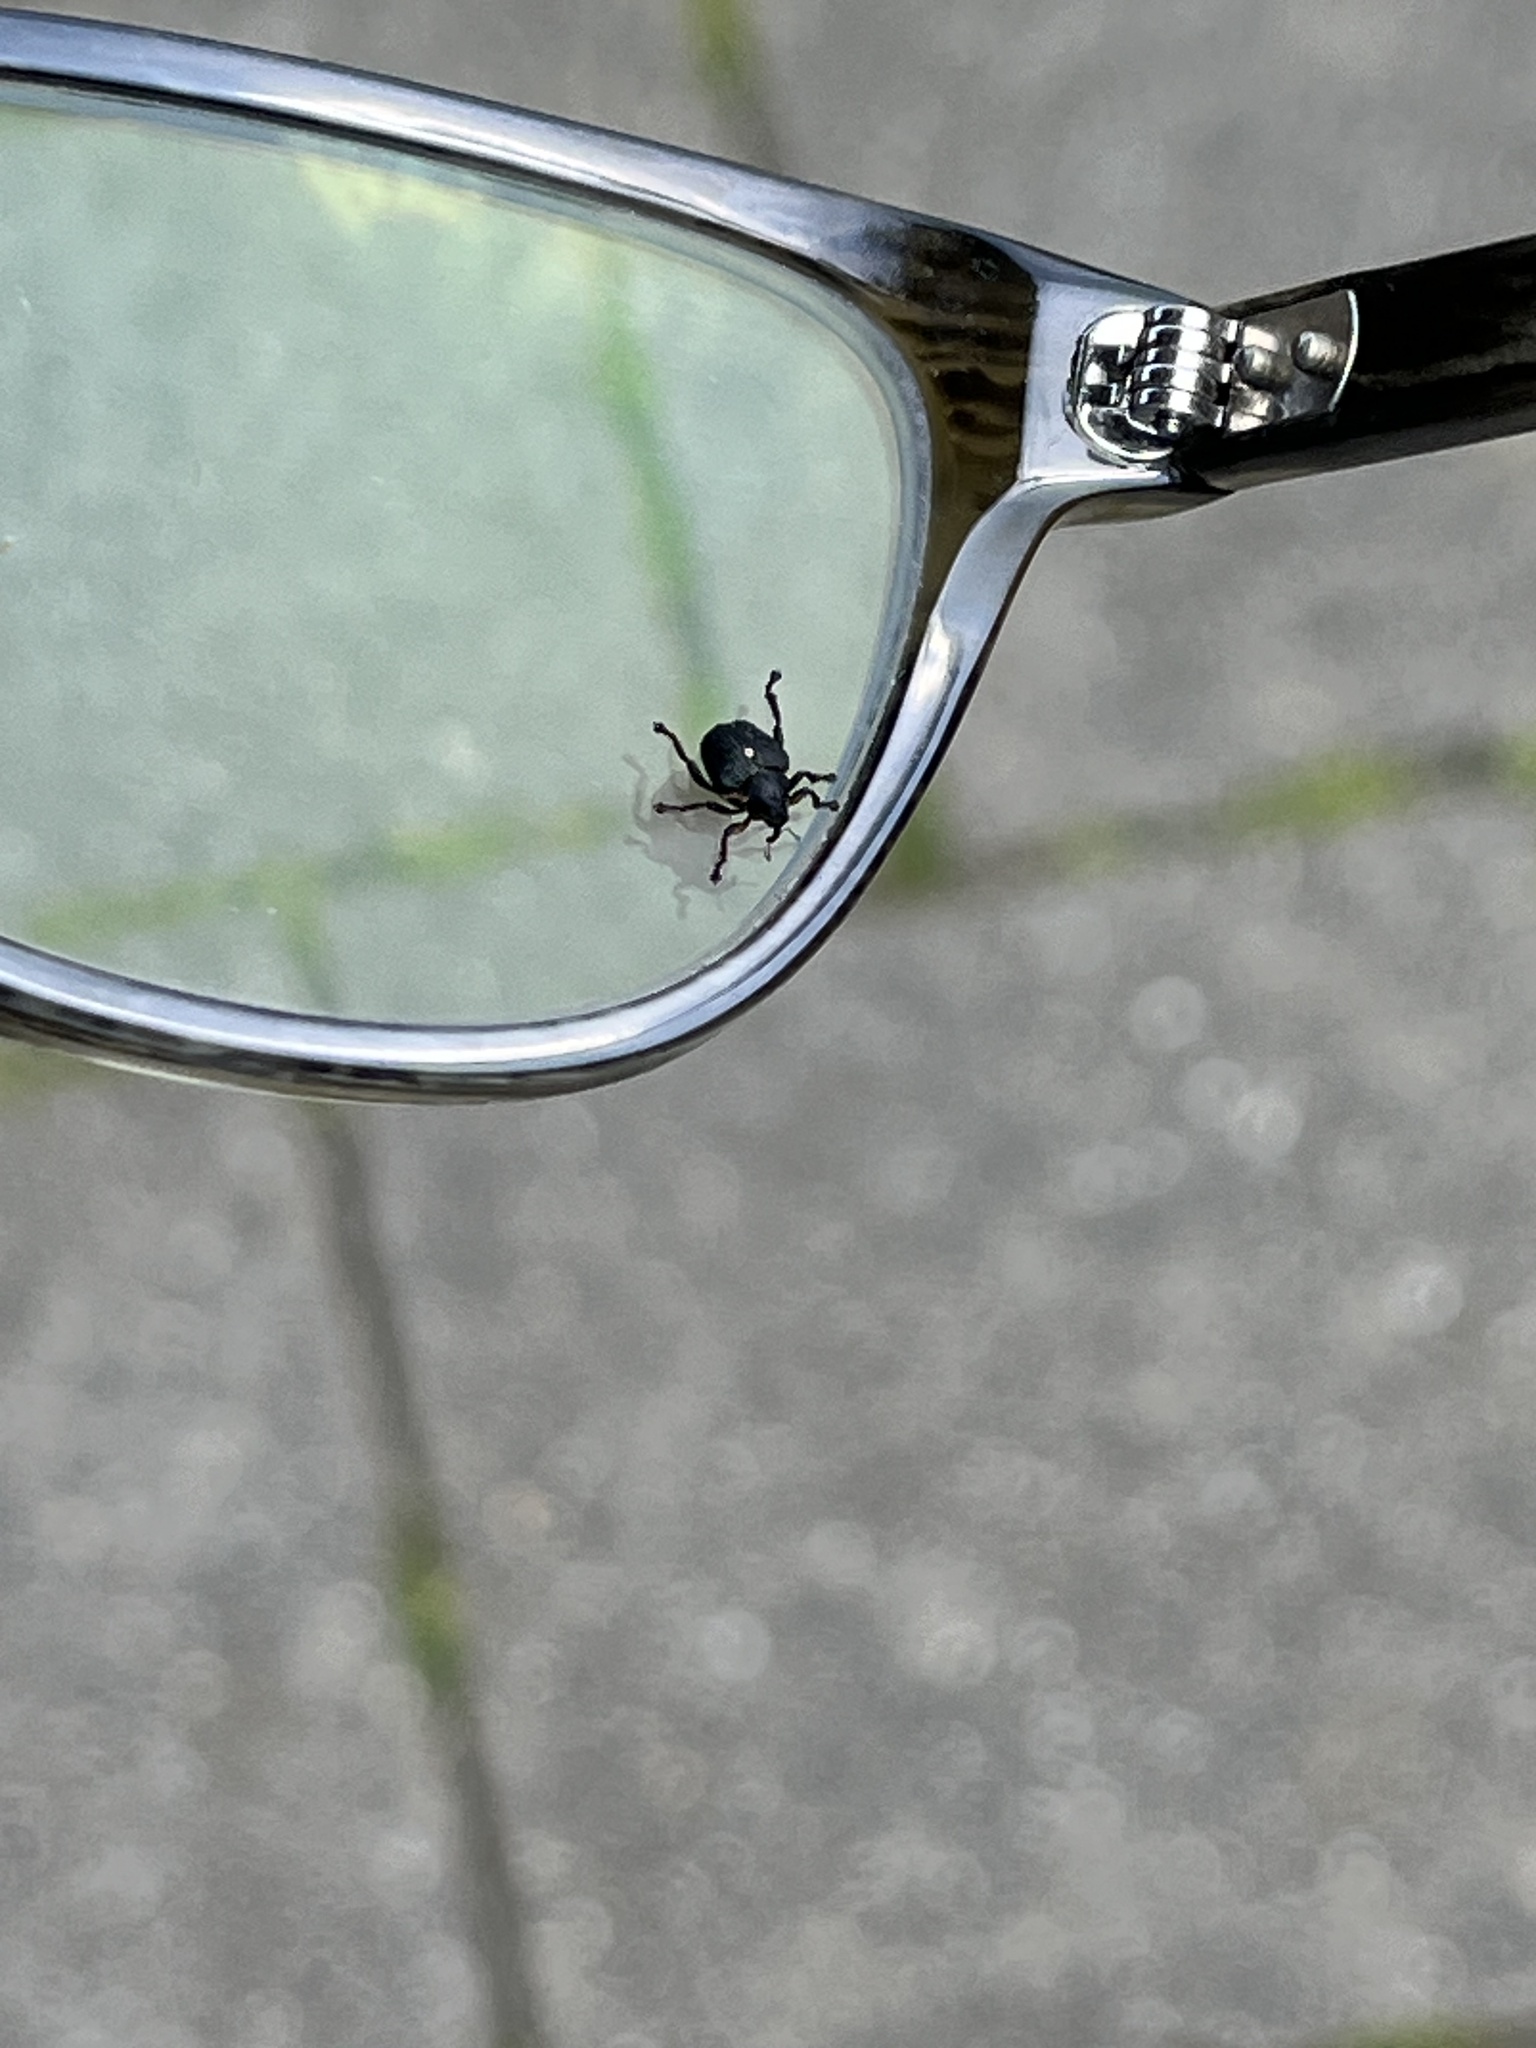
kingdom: Animalia
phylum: Arthropoda
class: Insecta
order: Coleoptera
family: Curculionidae
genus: Mononychus
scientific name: Mononychus punctumalbum
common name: Iris weevil
